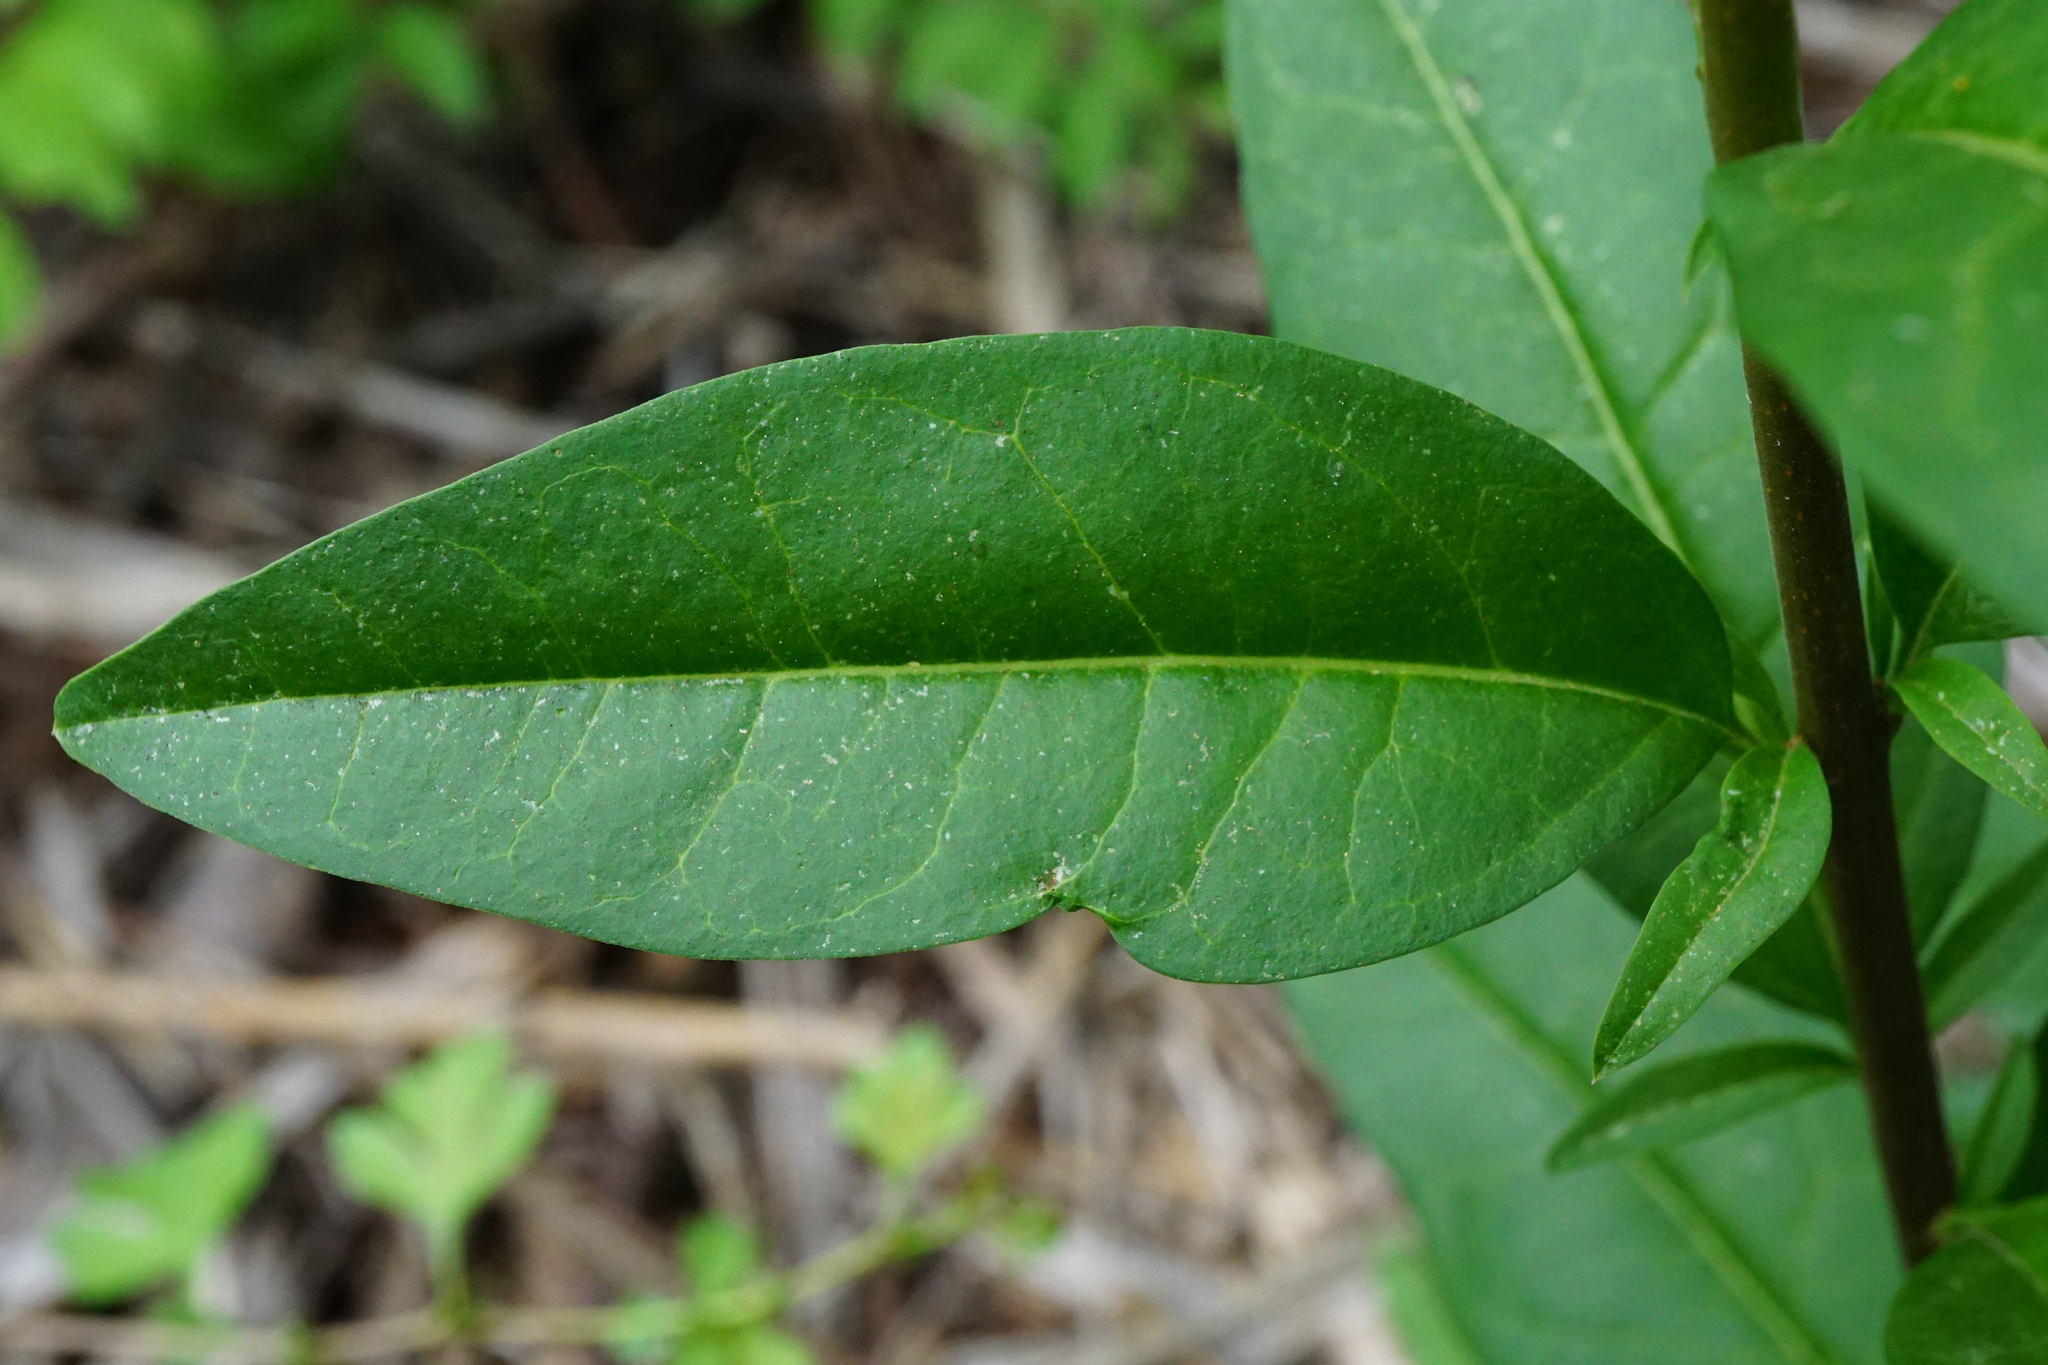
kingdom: Plantae
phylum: Tracheophyta
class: Magnoliopsida
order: Lamiales
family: Oleaceae
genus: Ligustrum
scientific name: Ligustrum vulgare
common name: Wild privet
